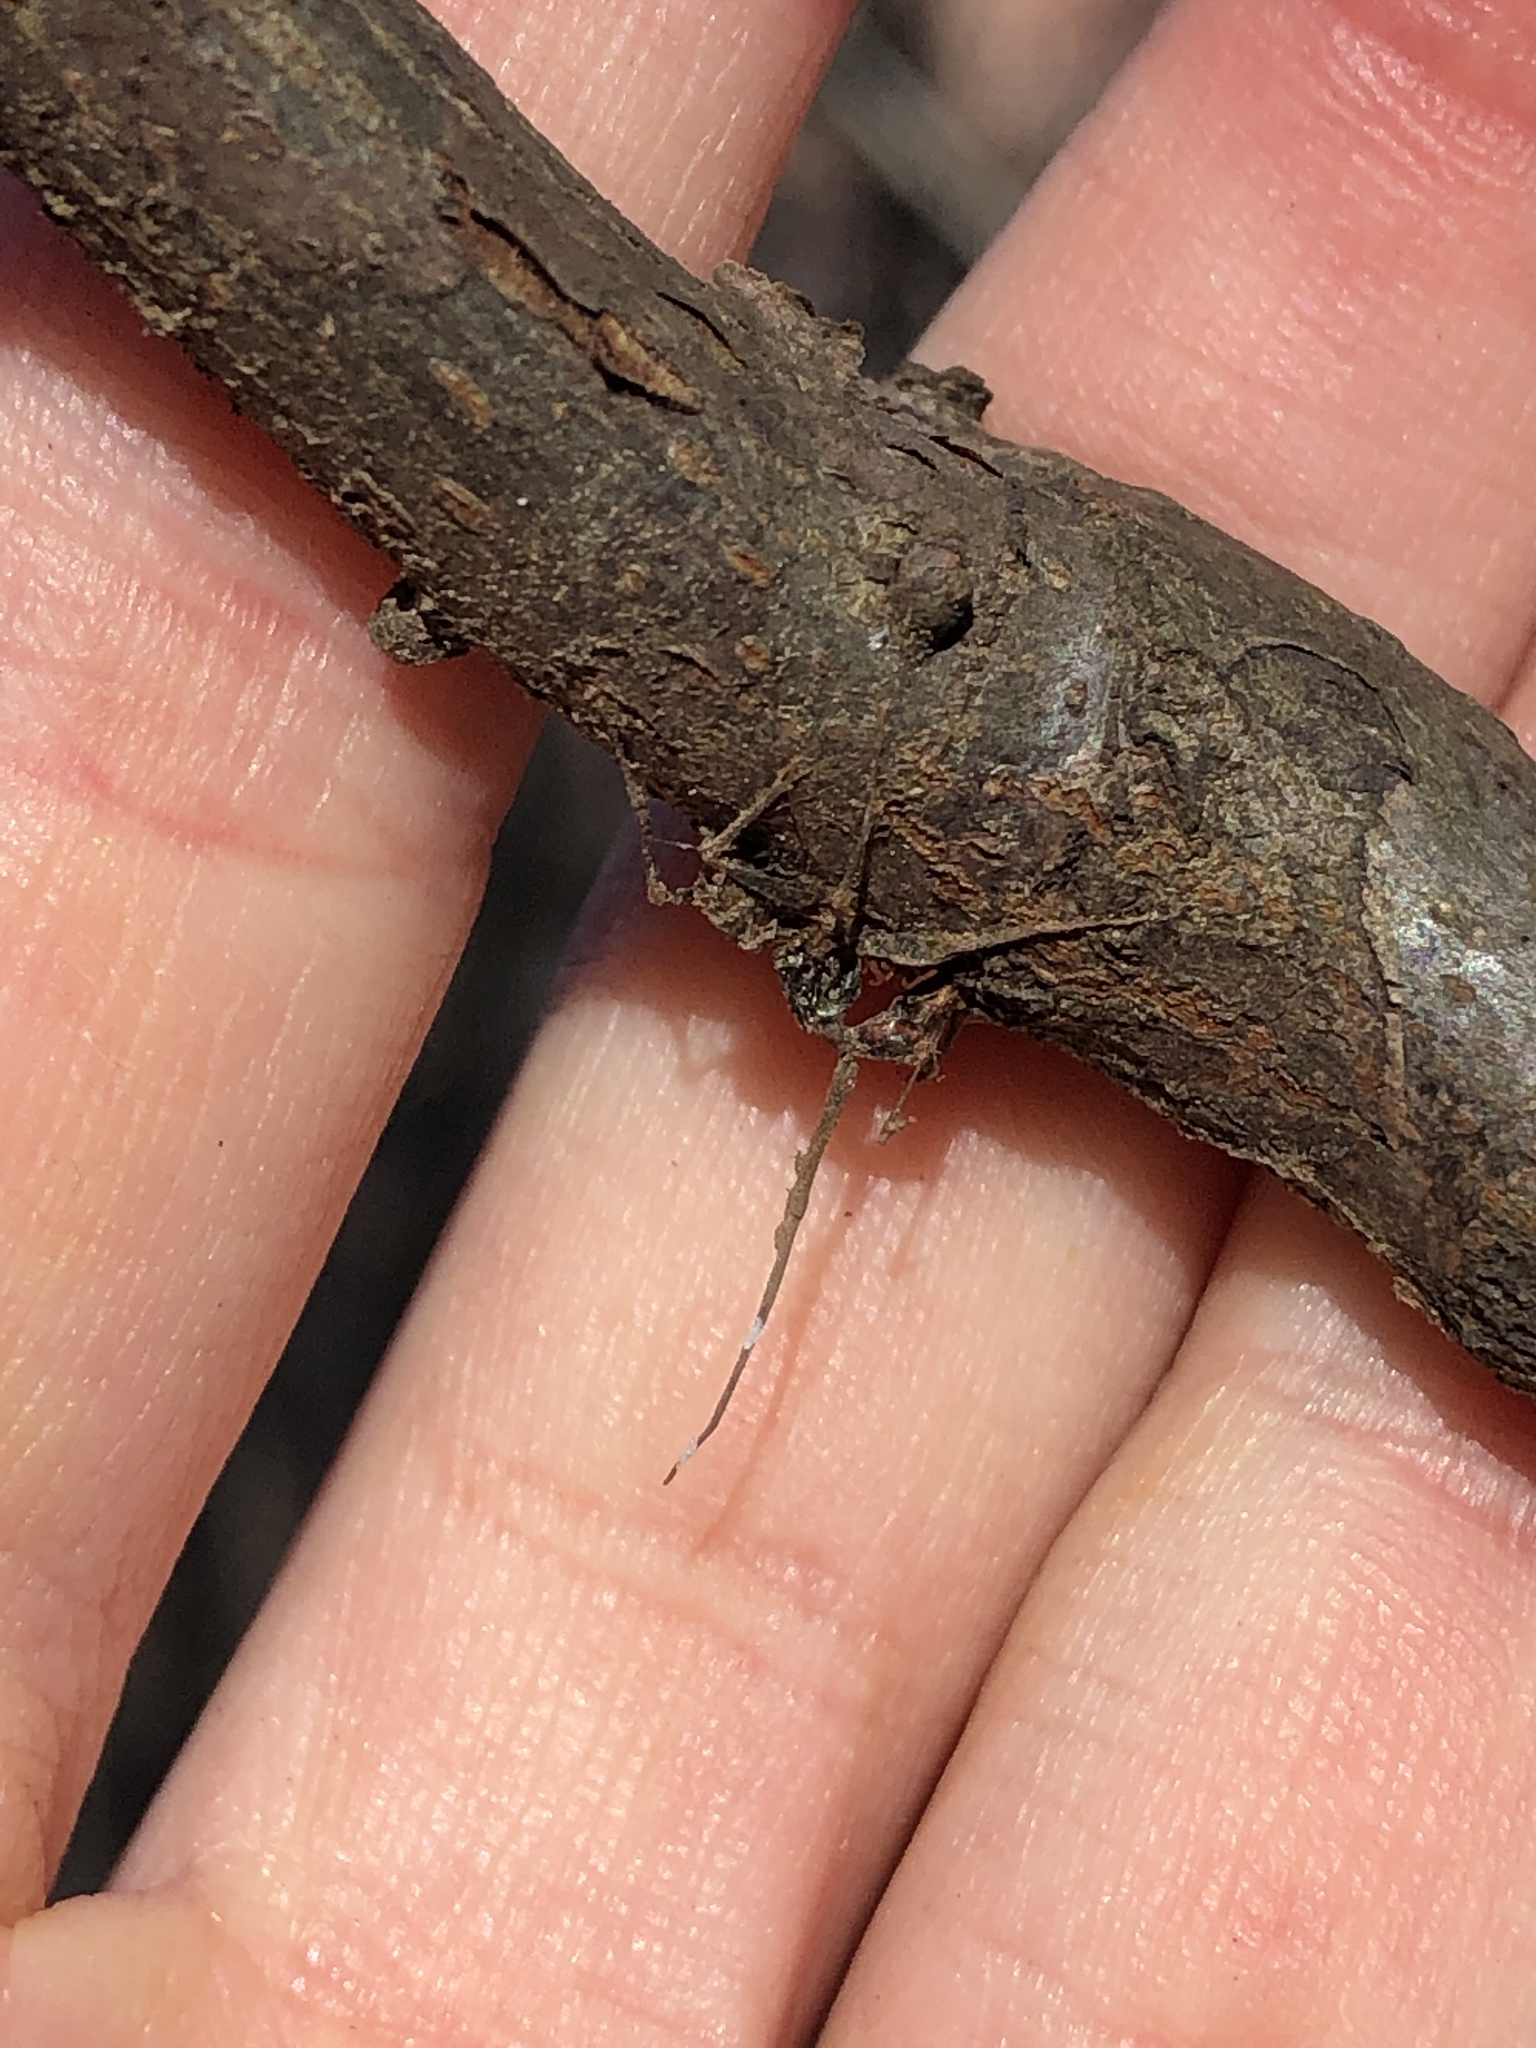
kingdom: Fungi
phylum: Ascomycota
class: Sordariomycetes
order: Hypocreales
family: Ophiocordycipitaceae
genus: Ophiocordyceps
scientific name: Ophiocordyceps
